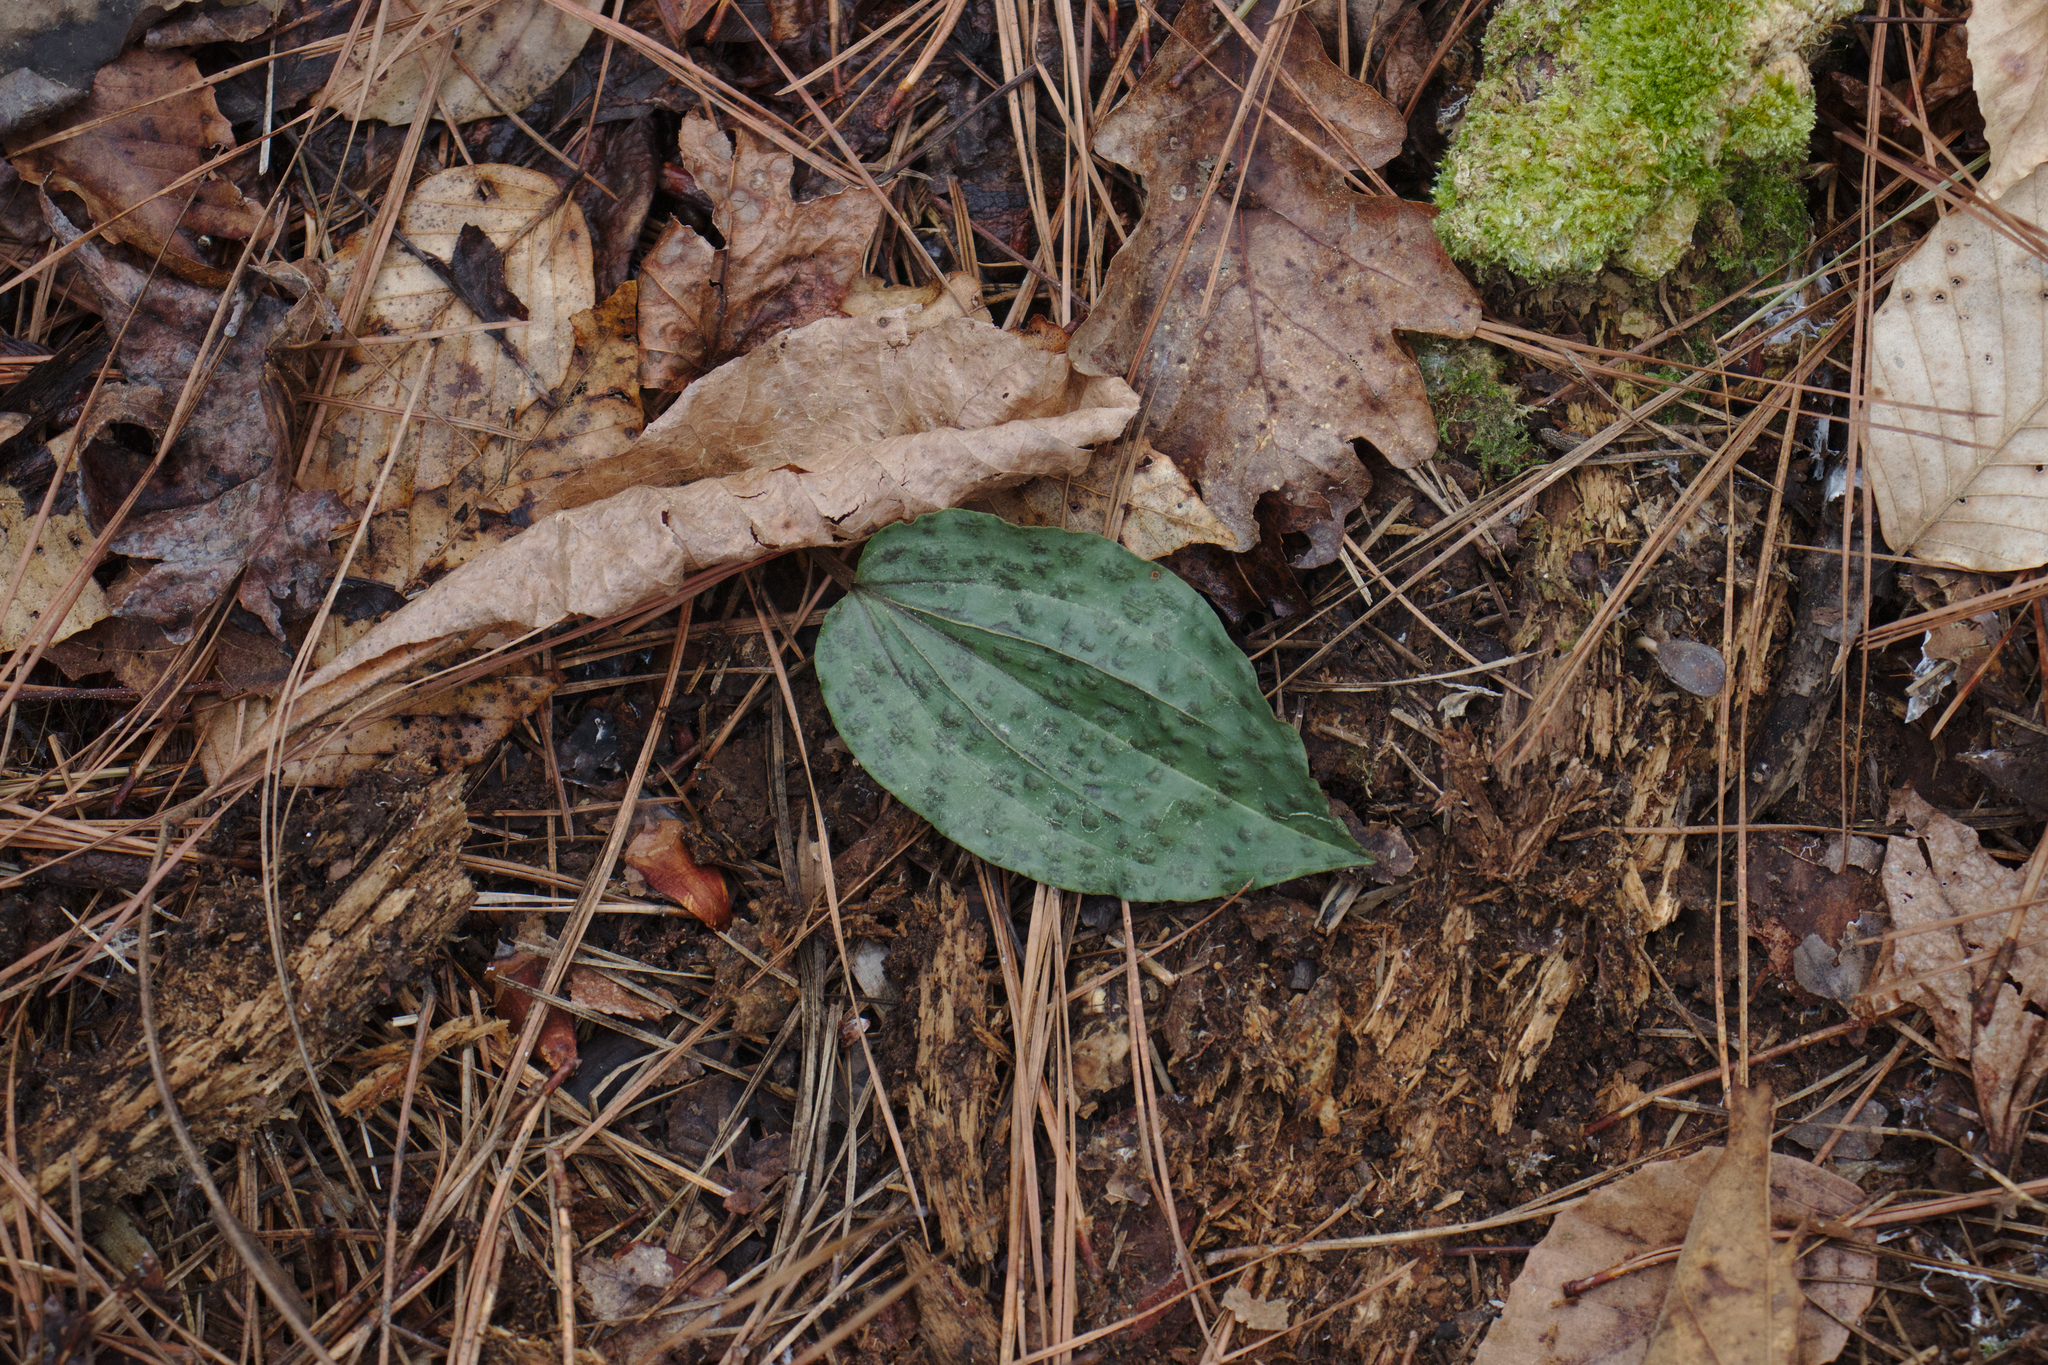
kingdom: Plantae
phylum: Tracheophyta
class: Liliopsida
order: Asparagales
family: Orchidaceae
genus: Tipularia
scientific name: Tipularia discolor
